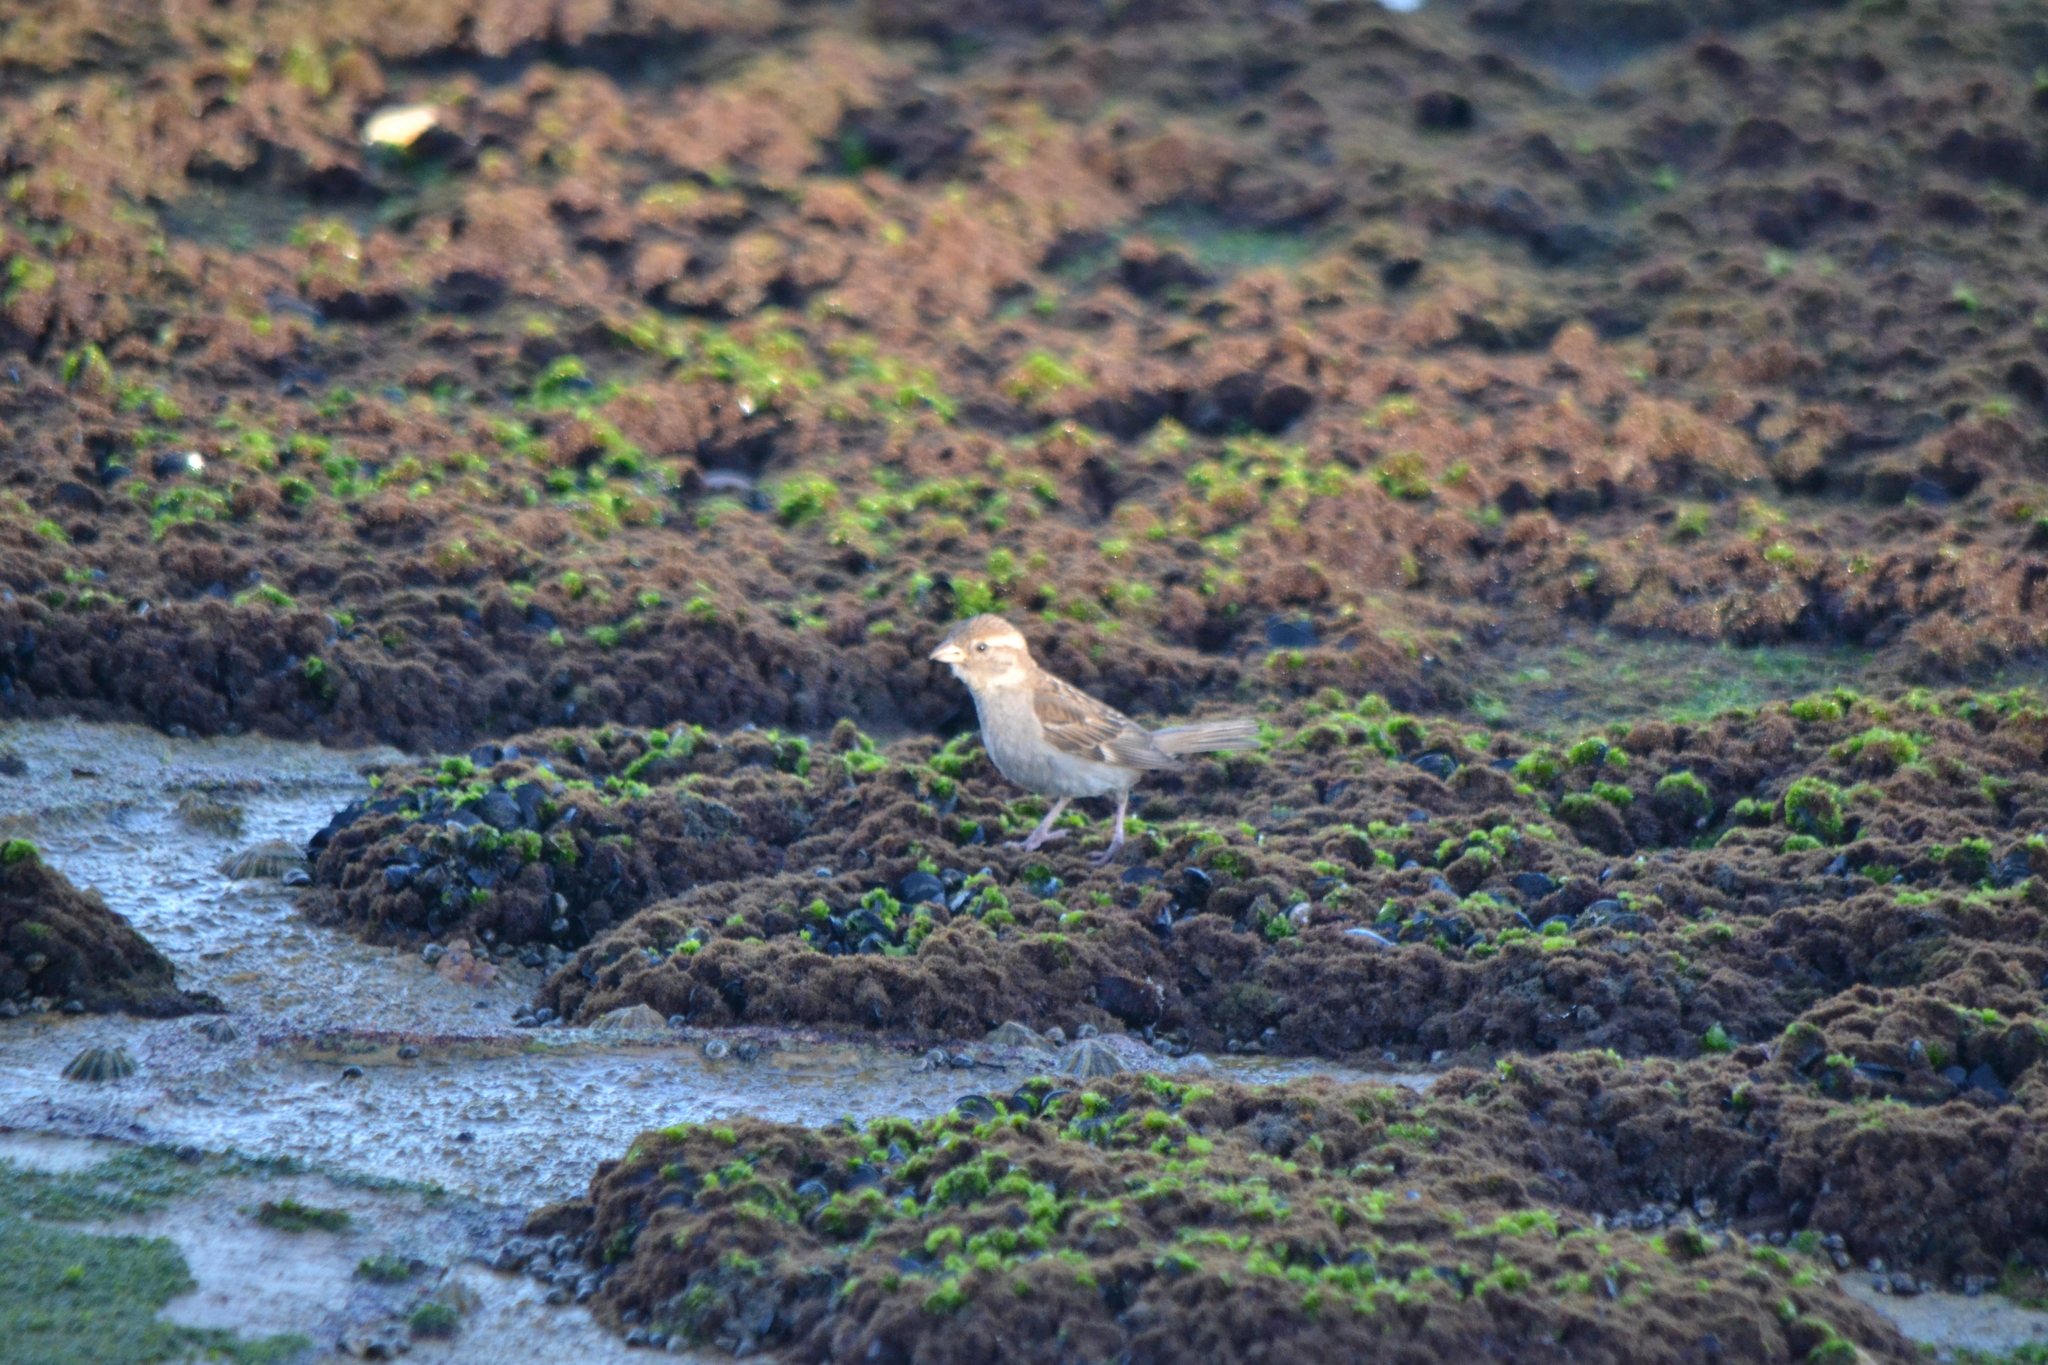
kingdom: Animalia
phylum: Chordata
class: Aves
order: Passeriformes
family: Passeridae
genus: Passer
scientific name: Passer domesticus
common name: House sparrow
